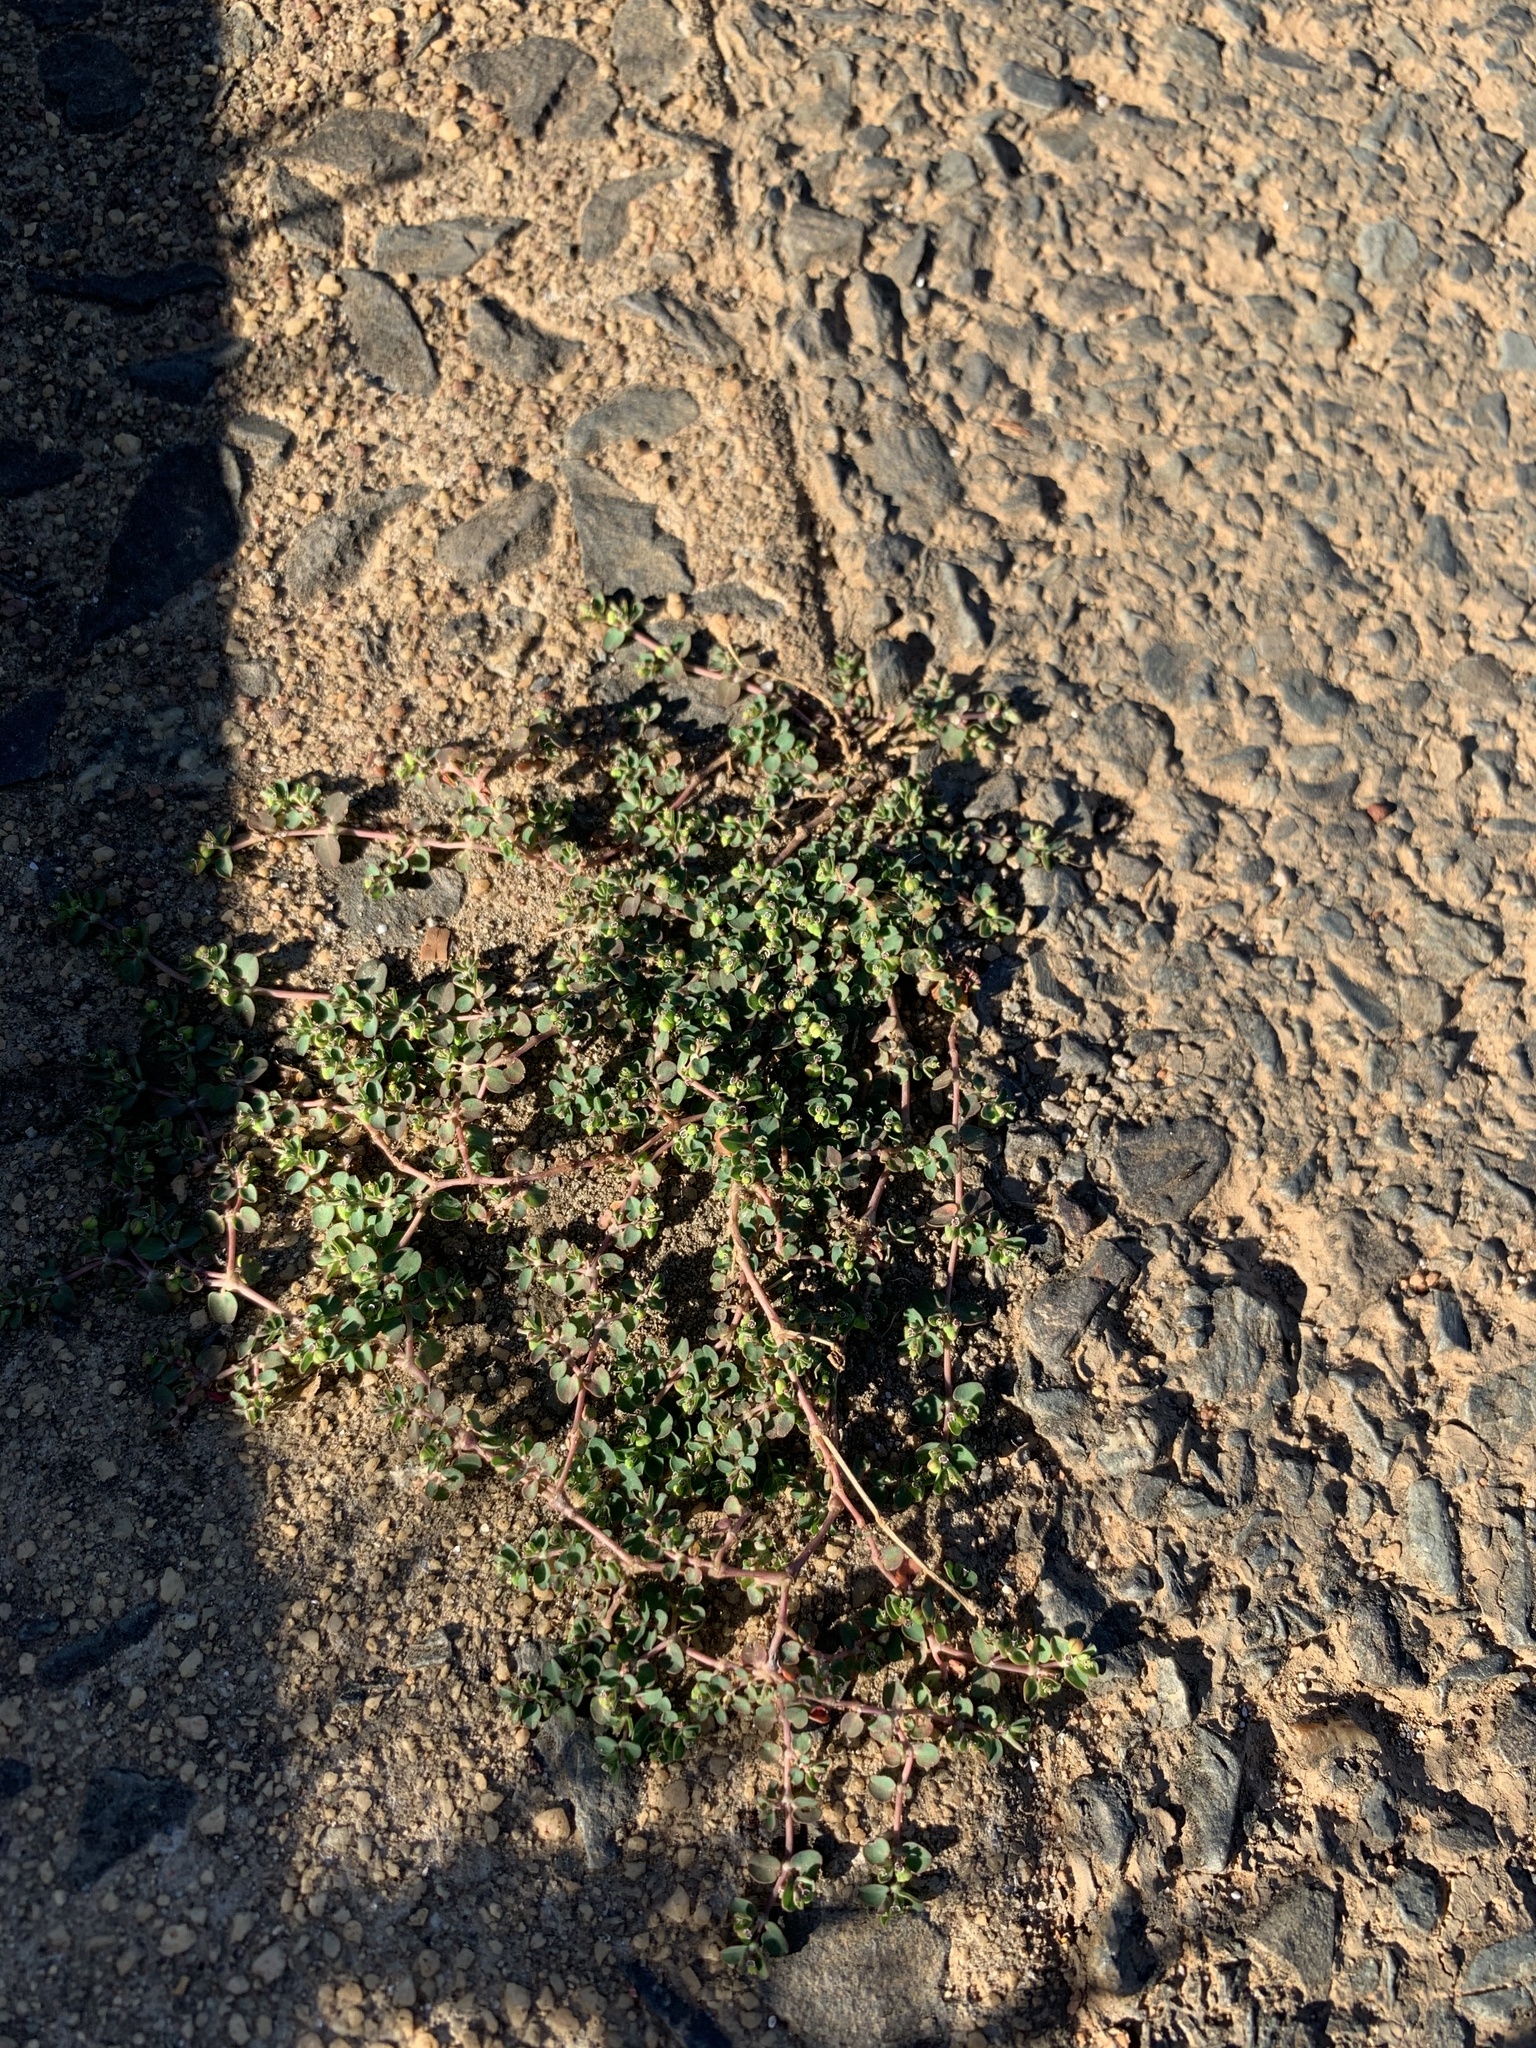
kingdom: Plantae
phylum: Tracheophyta
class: Magnoliopsida
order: Malpighiales
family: Euphorbiaceae
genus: Euphorbia
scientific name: Euphorbia serpens
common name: Matted sandmat
